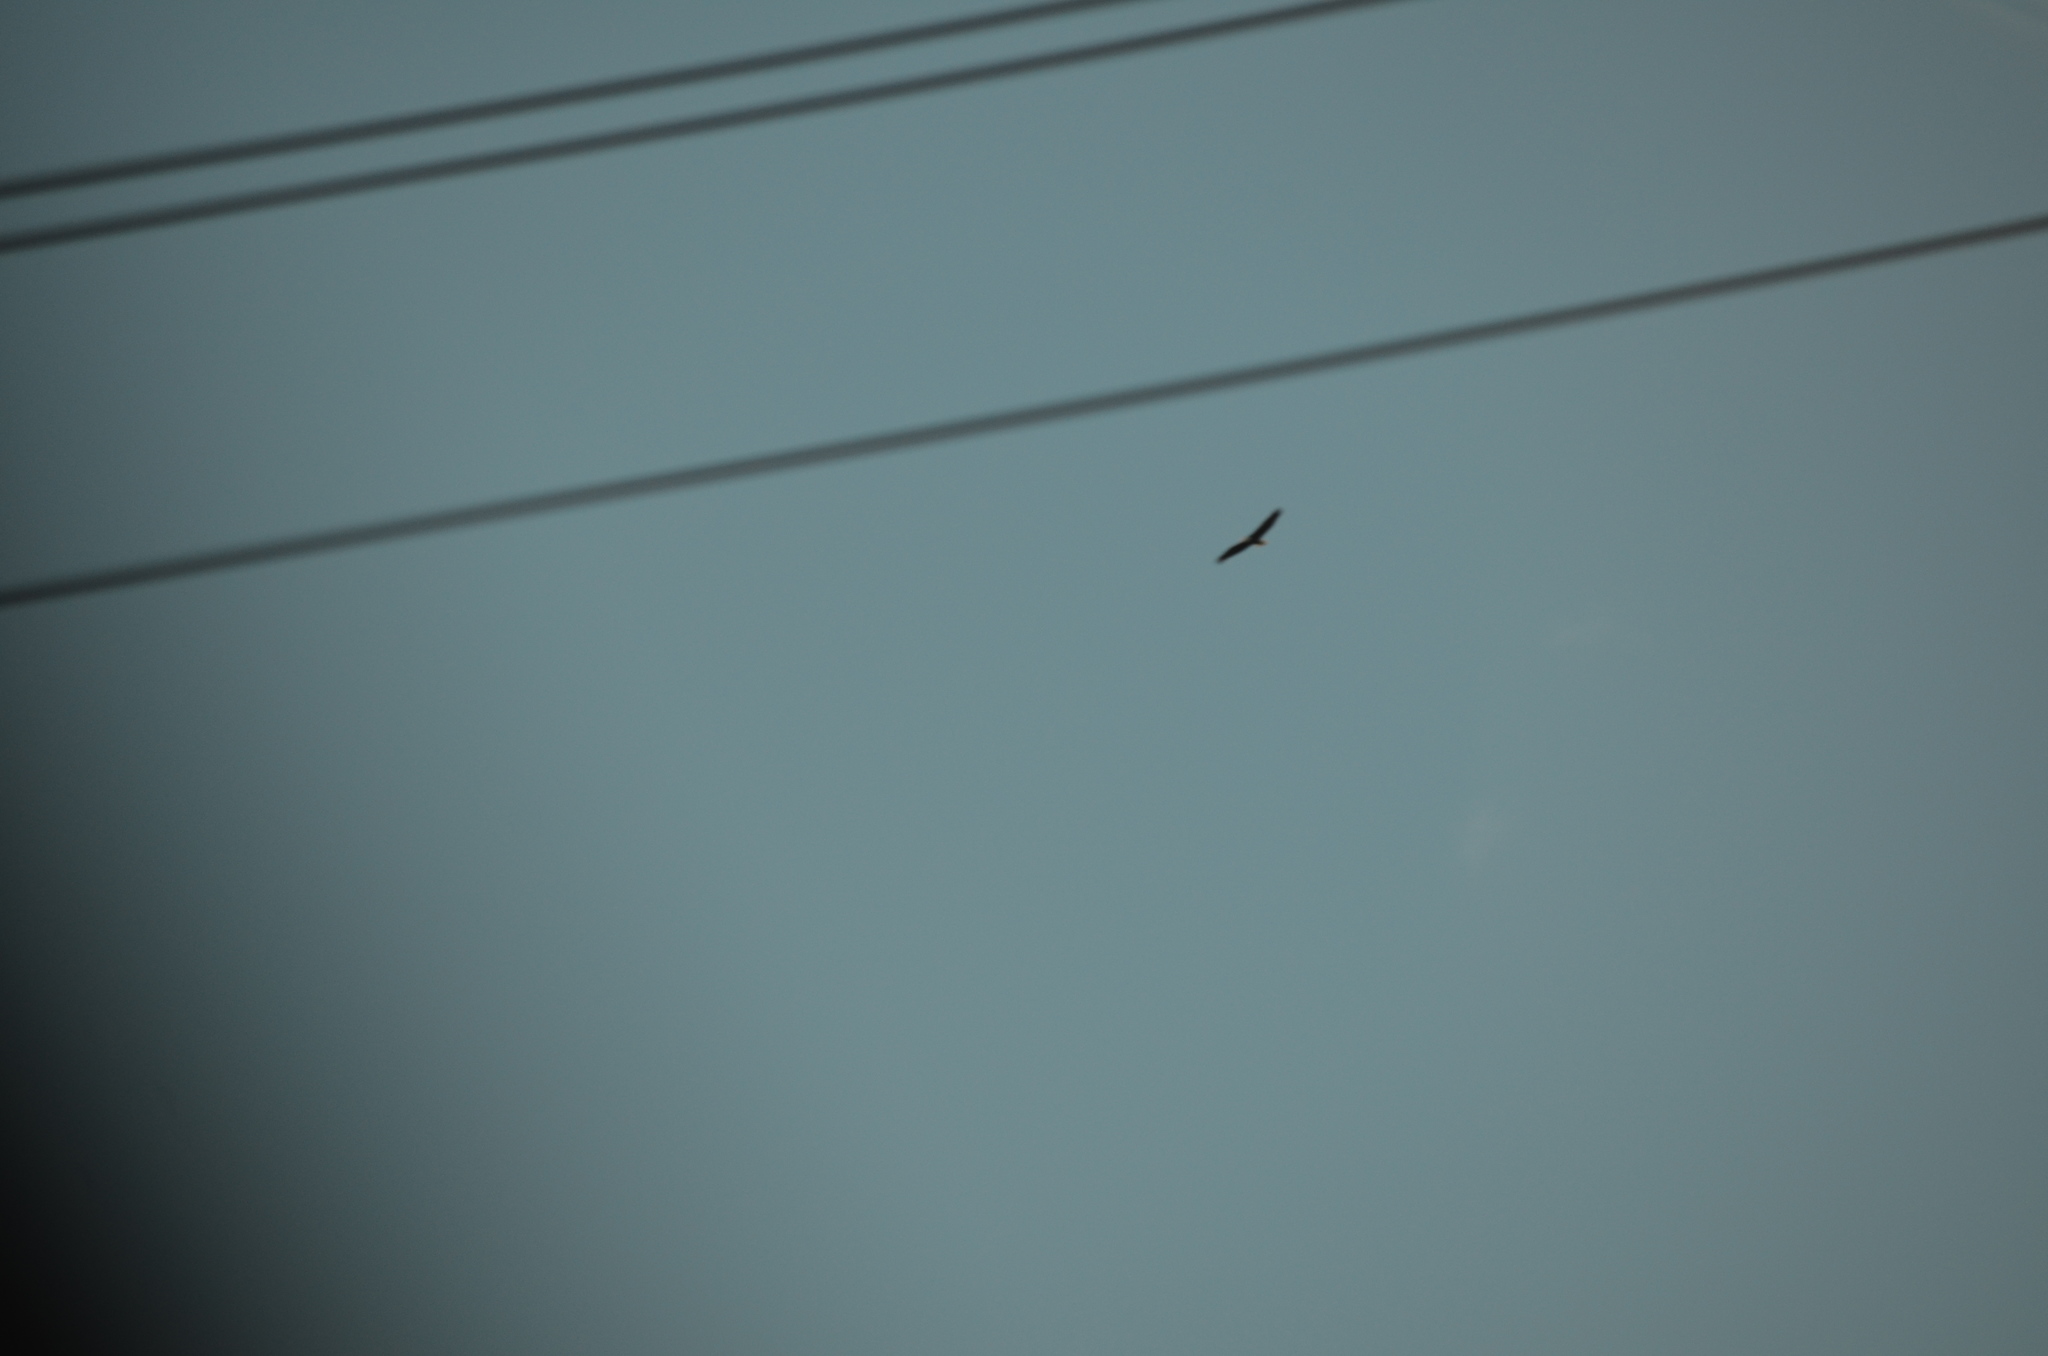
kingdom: Animalia
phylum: Chordata
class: Aves
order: Accipitriformes
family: Accipitridae
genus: Haliaeetus
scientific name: Haliaeetus leucocephalus
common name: Bald eagle
